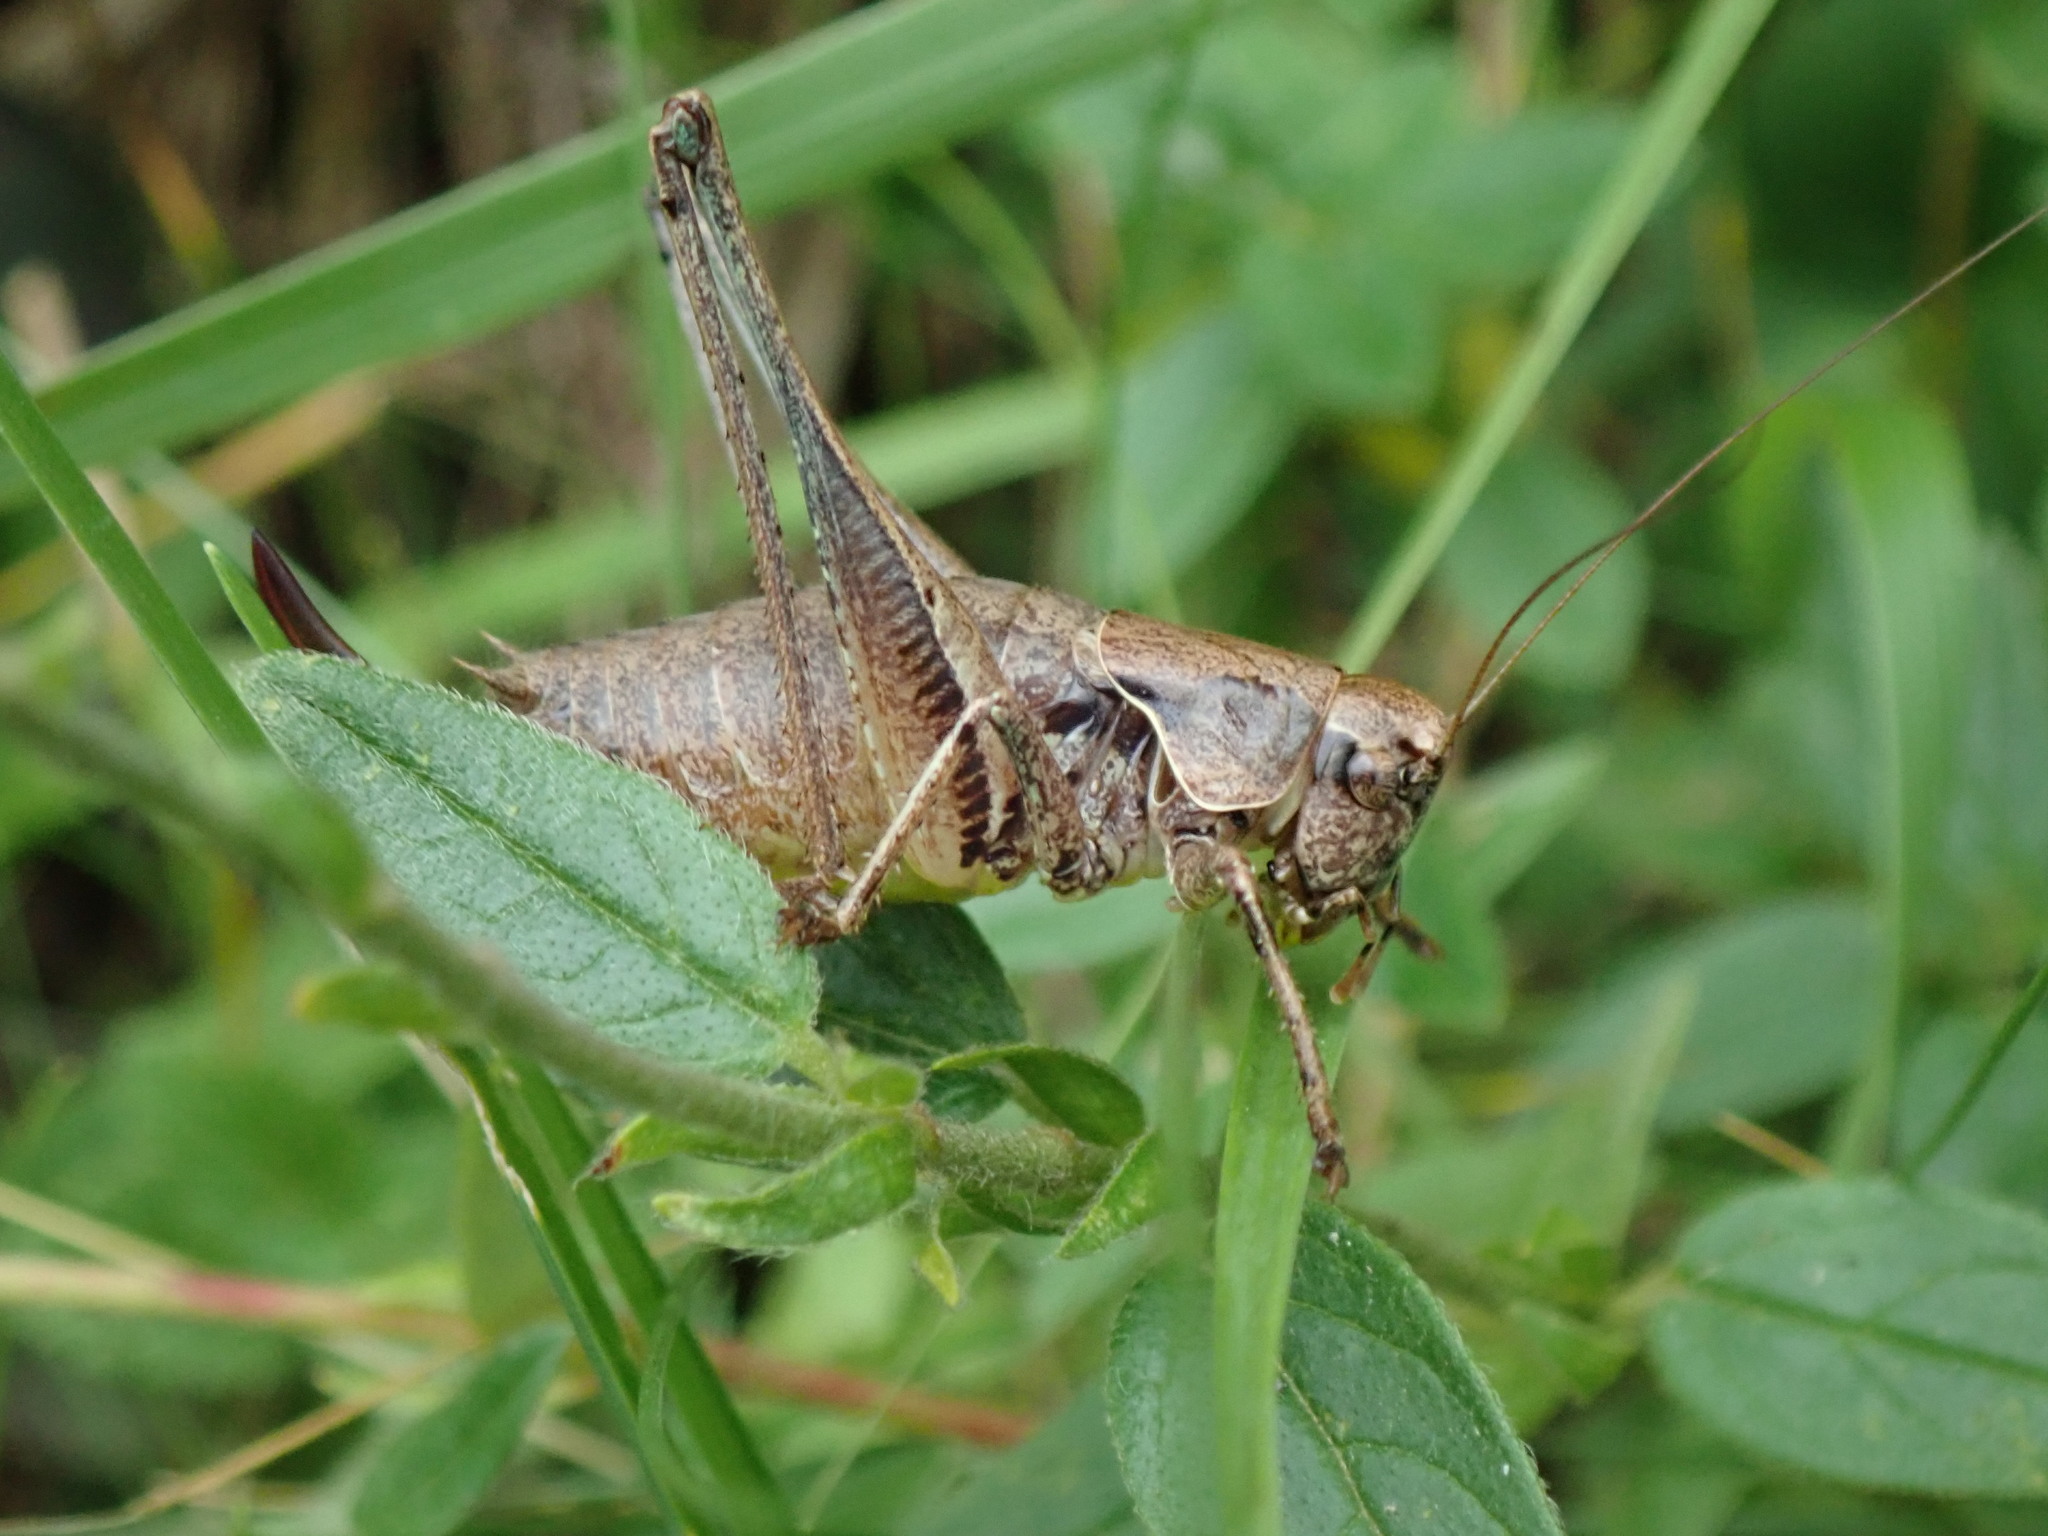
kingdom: Animalia
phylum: Arthropoda
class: Insecta
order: Orthoptera
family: Tettigoniidae
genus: Pholidoptera
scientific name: Pholidoptera griseoaptera
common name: Dark bush-cricket
